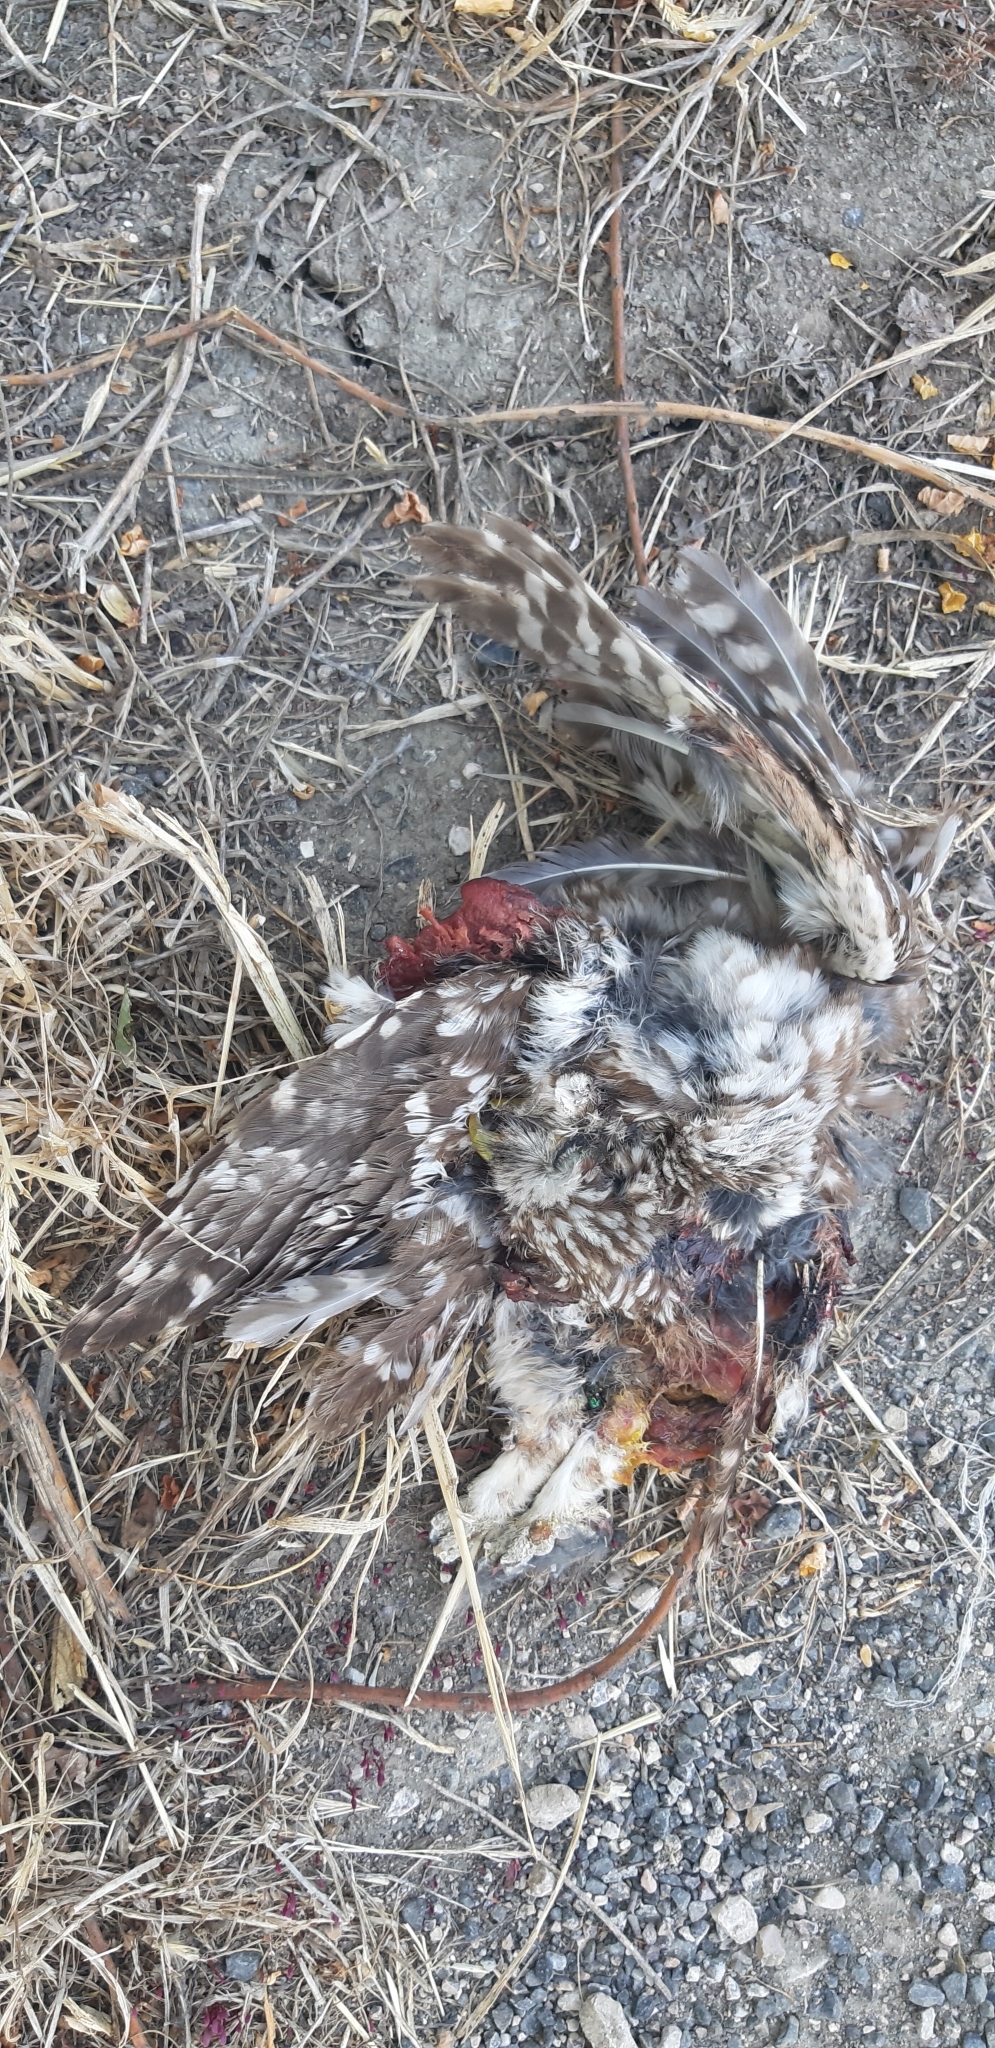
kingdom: Animalia
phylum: Chordata
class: Aves
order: Strigiformes
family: Strigidae
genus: Athene
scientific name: Athene noctua
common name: Little owl
